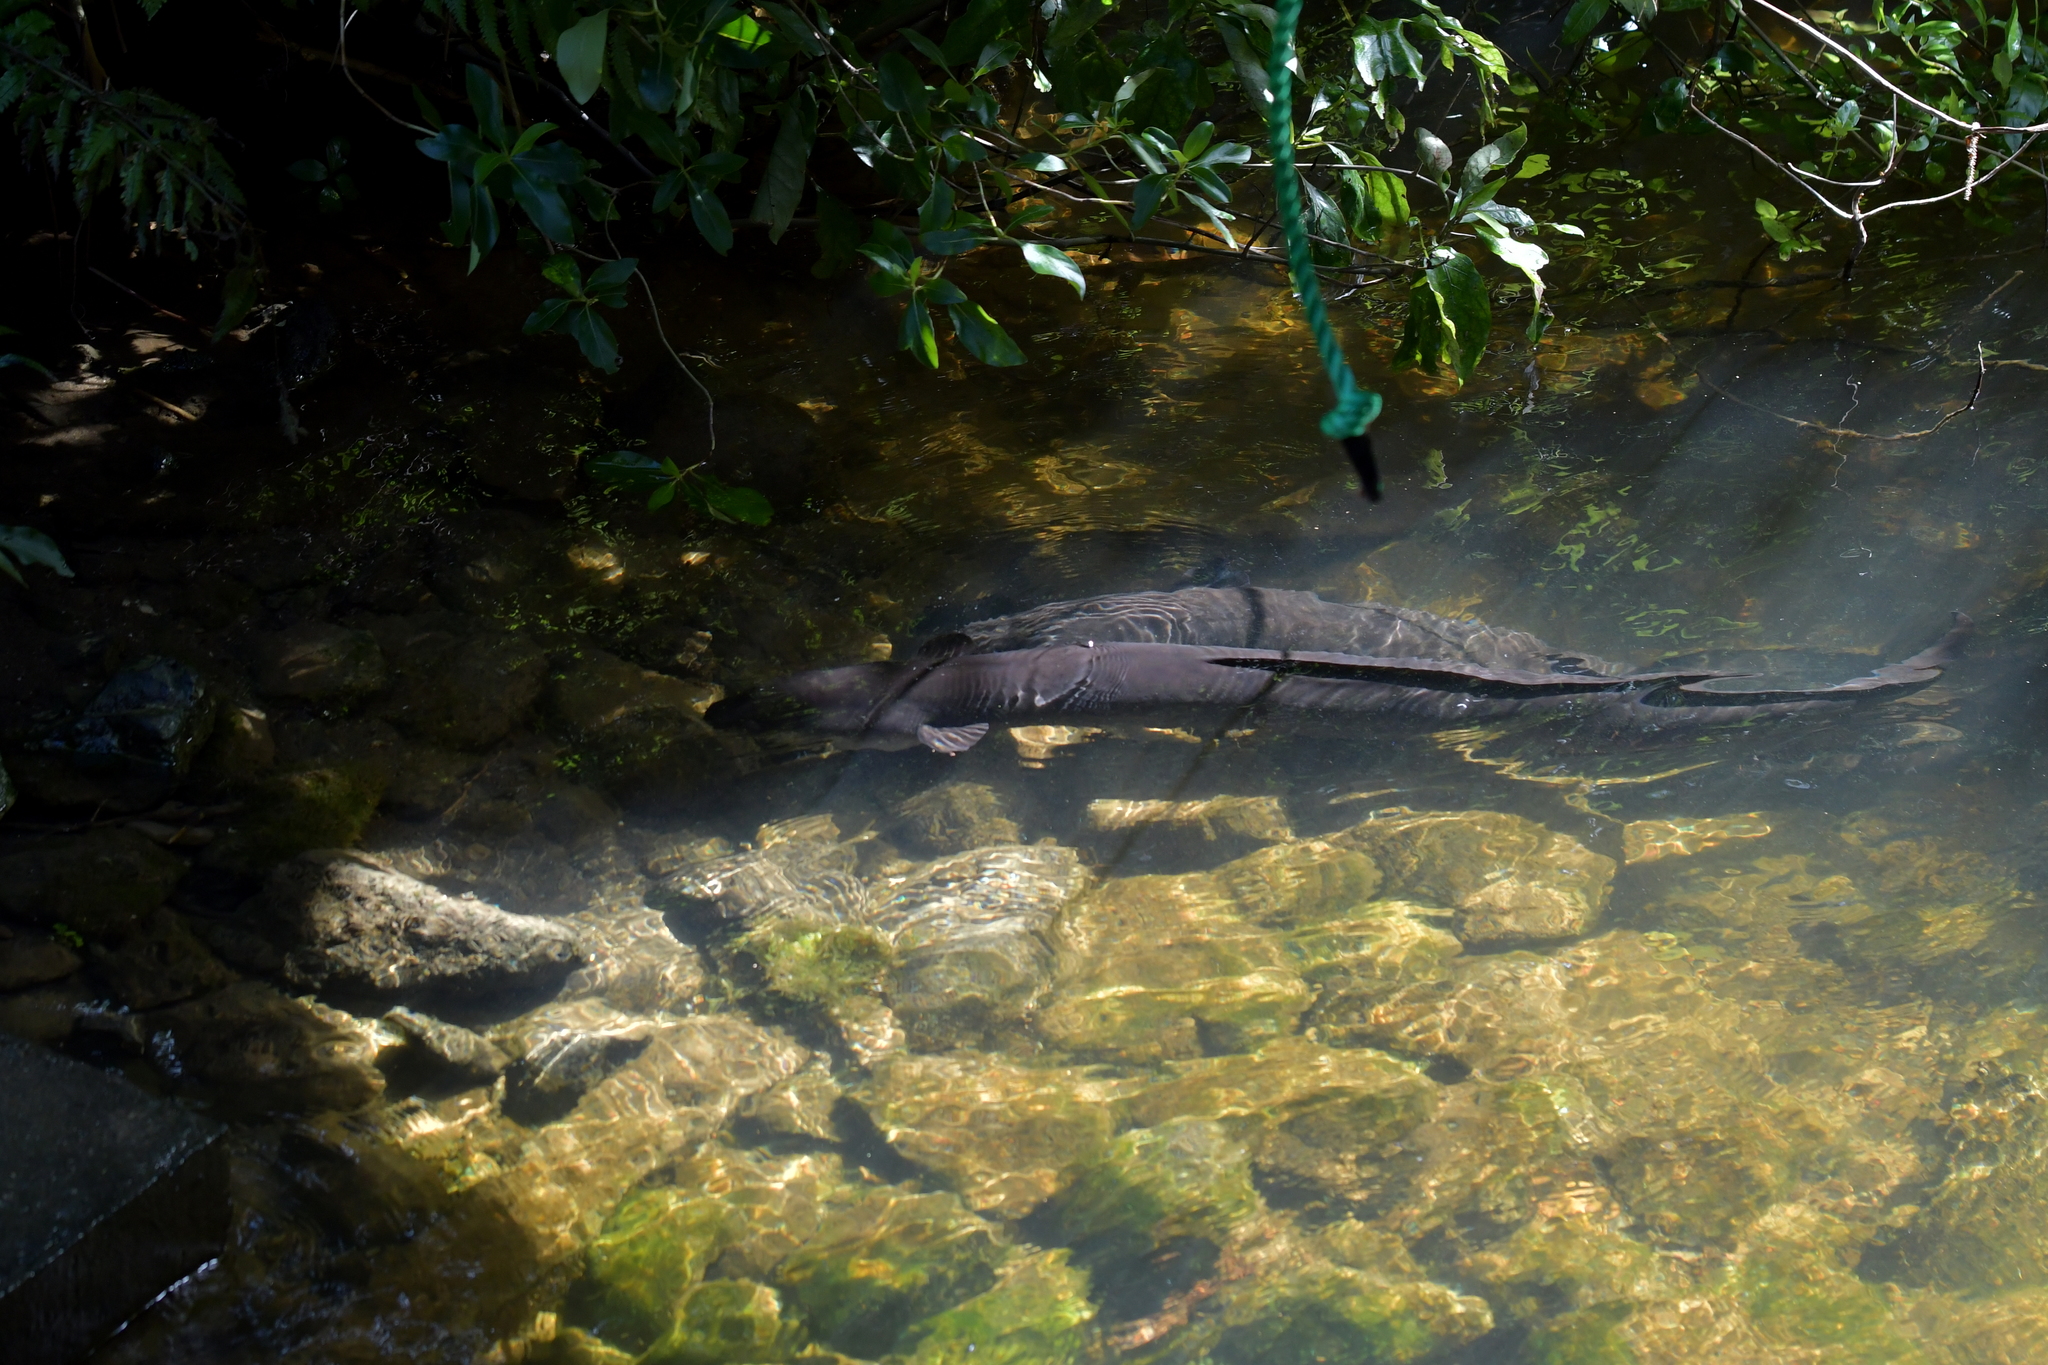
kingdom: Animalia
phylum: Chordata
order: Anguilliformes
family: Anguillidae
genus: Anguilla
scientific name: Anguilla dieffenbachii
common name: New zealand longfin eel
